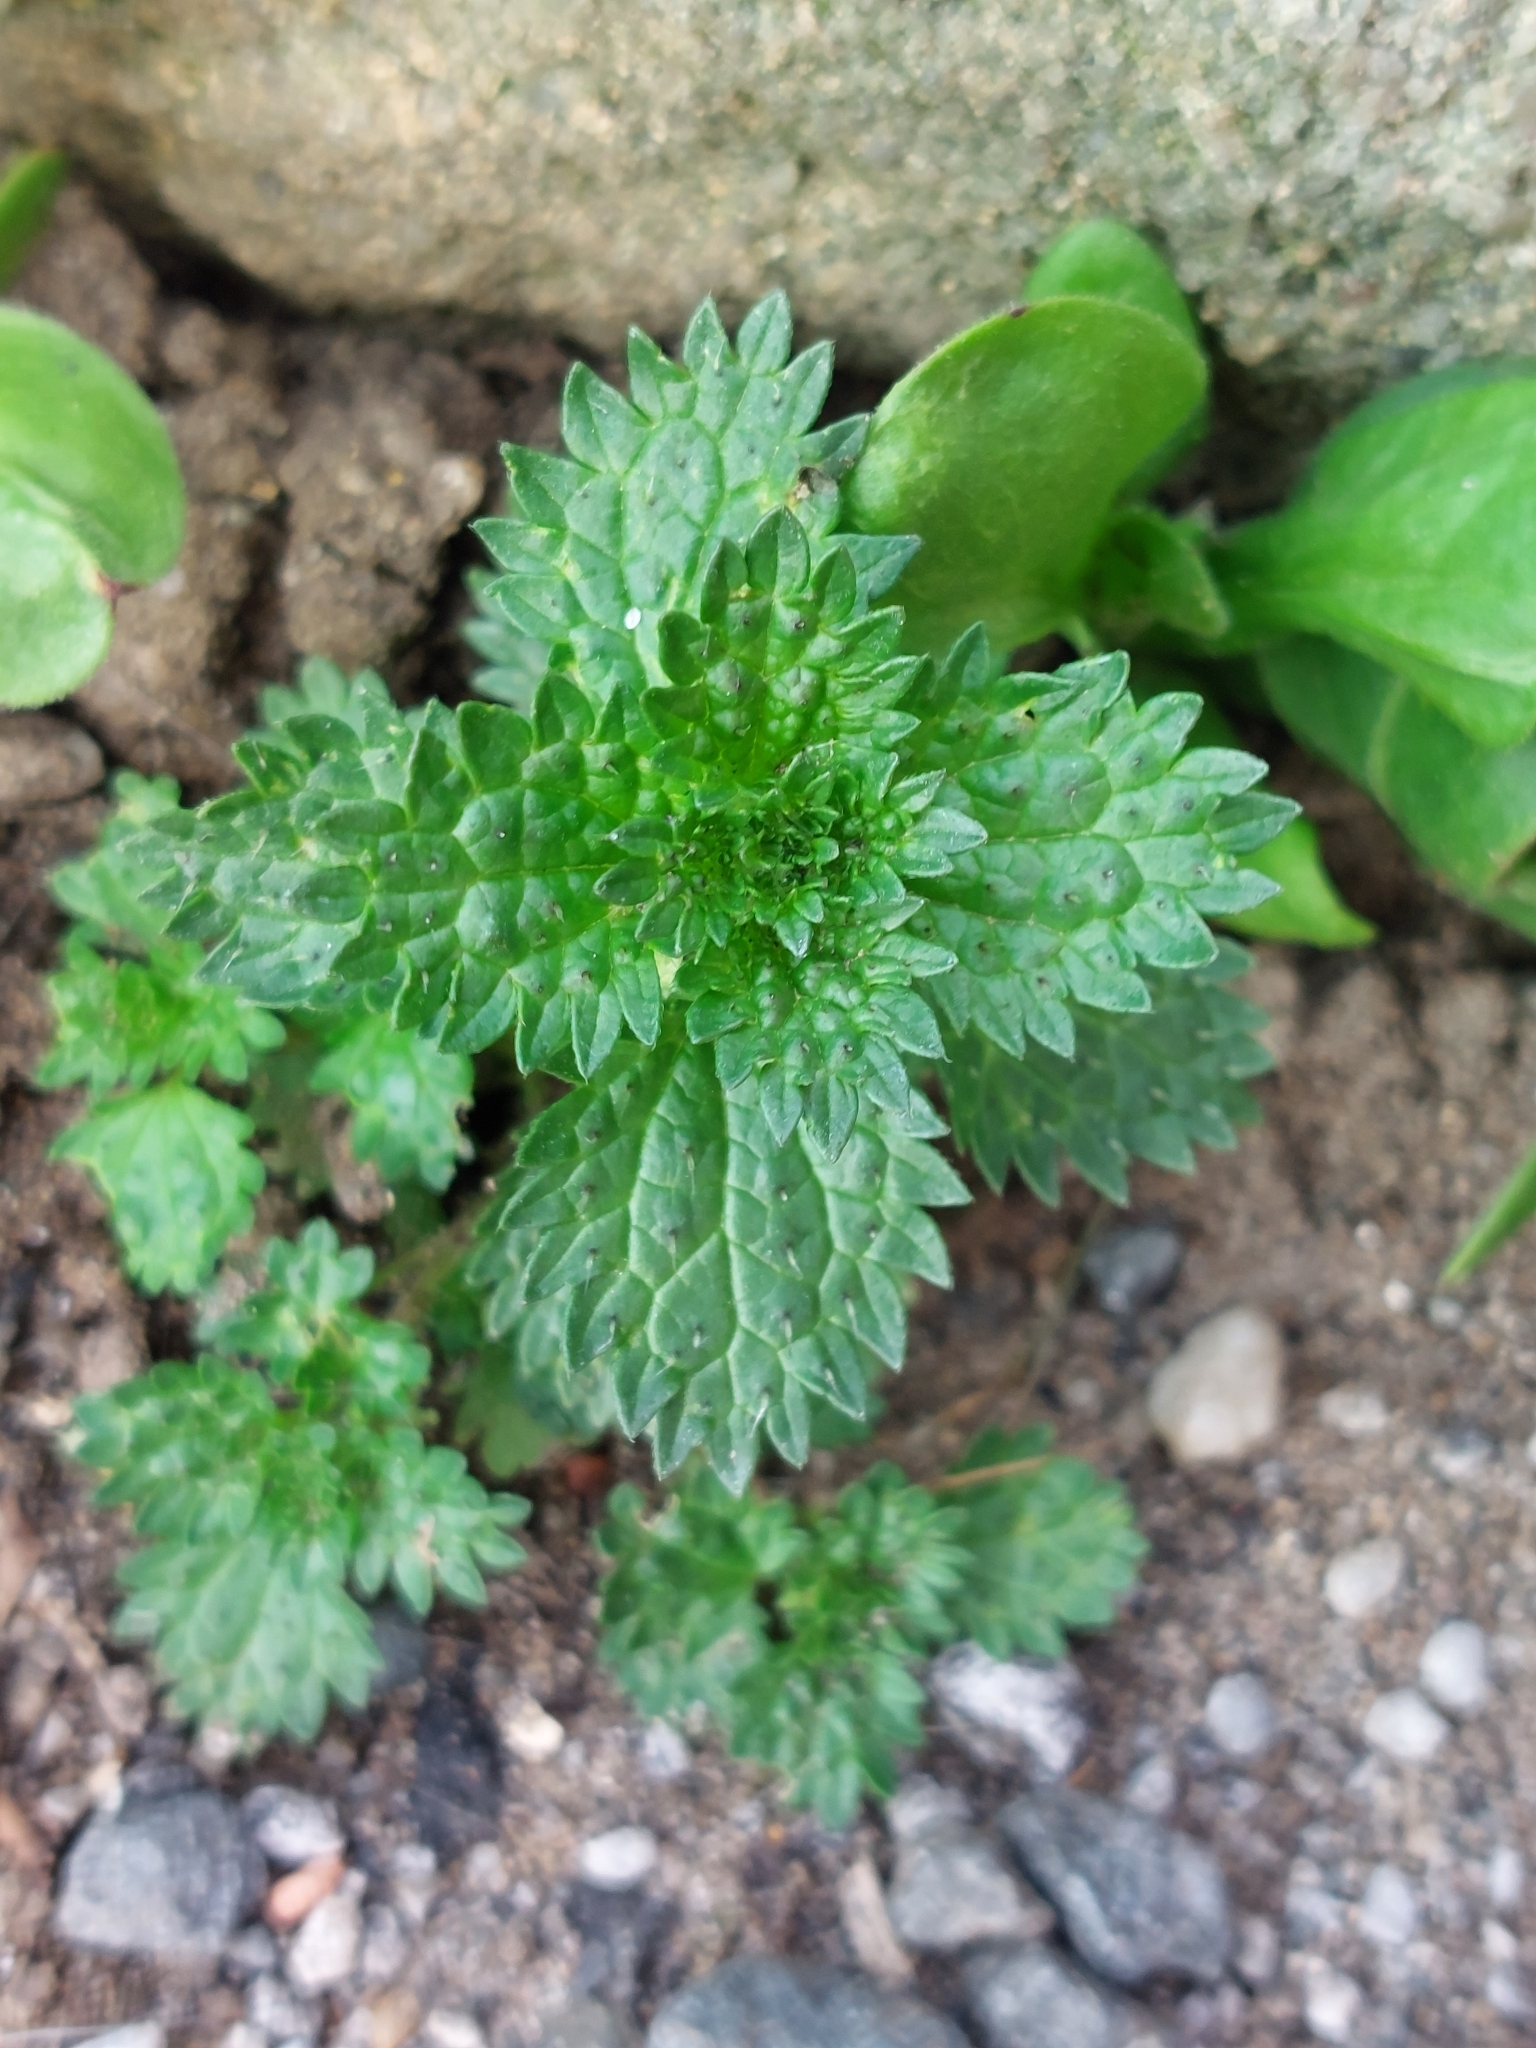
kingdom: Plantae
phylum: Tracheophyta
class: Magnoliopsida
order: Rosales
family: Urticaceae
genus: Urtica
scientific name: Urtica urens
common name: Dwarf nettle
